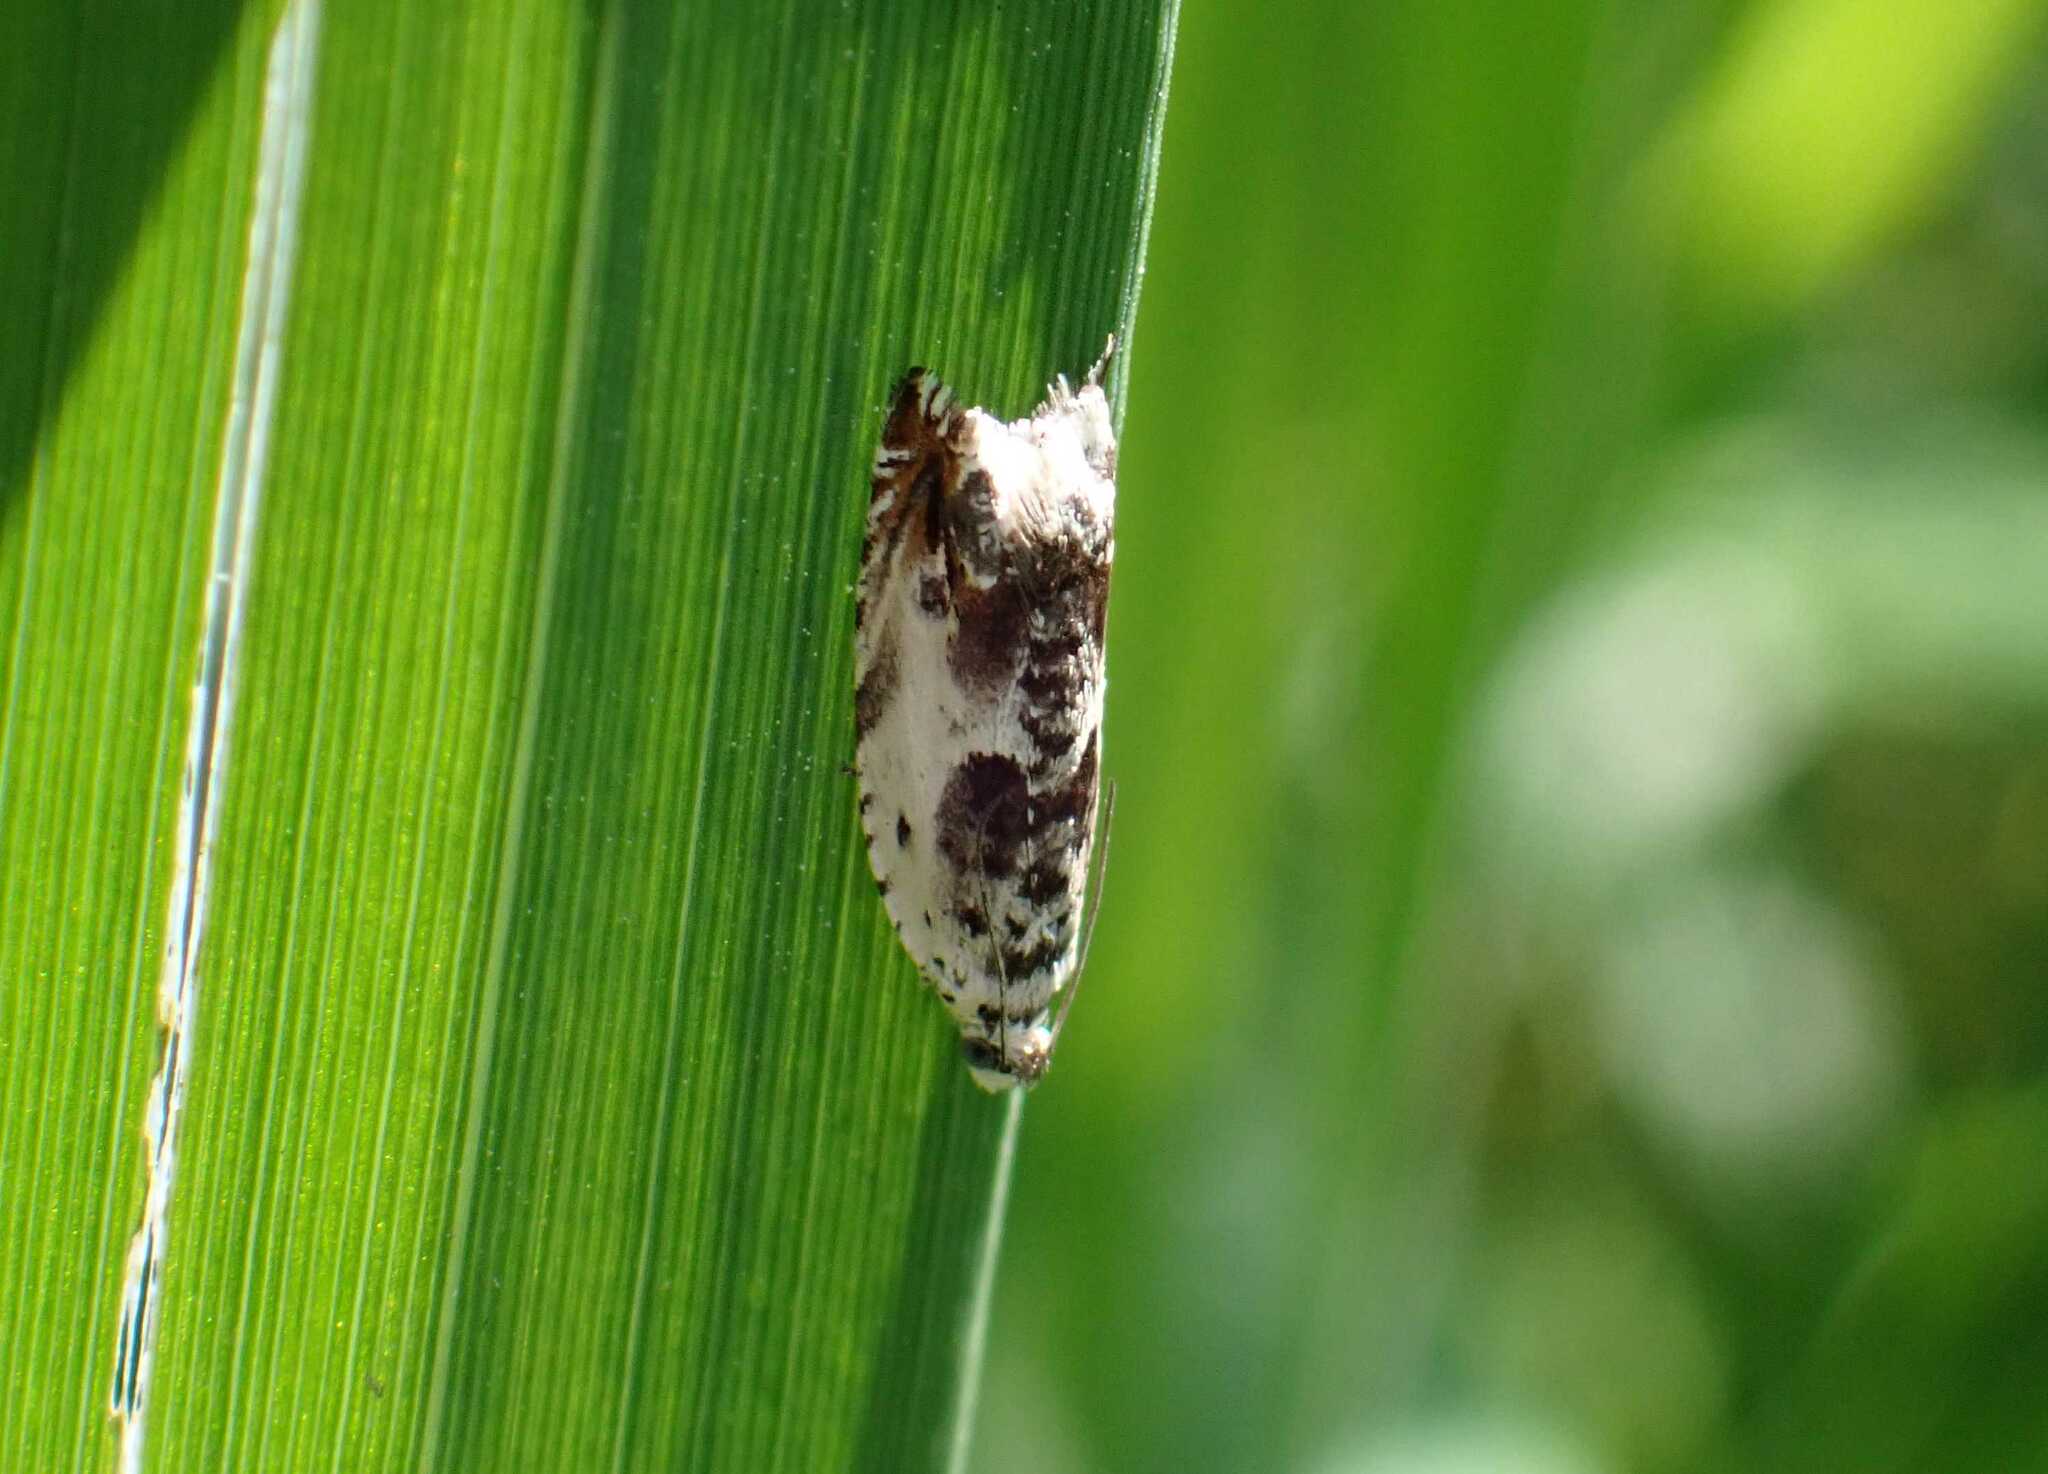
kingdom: Animalia
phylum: Arthropoda
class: Insecta
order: Lepidoptera
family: Tortricidae
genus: Ancylis
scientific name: Ancylis laetana
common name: Aspen roller
